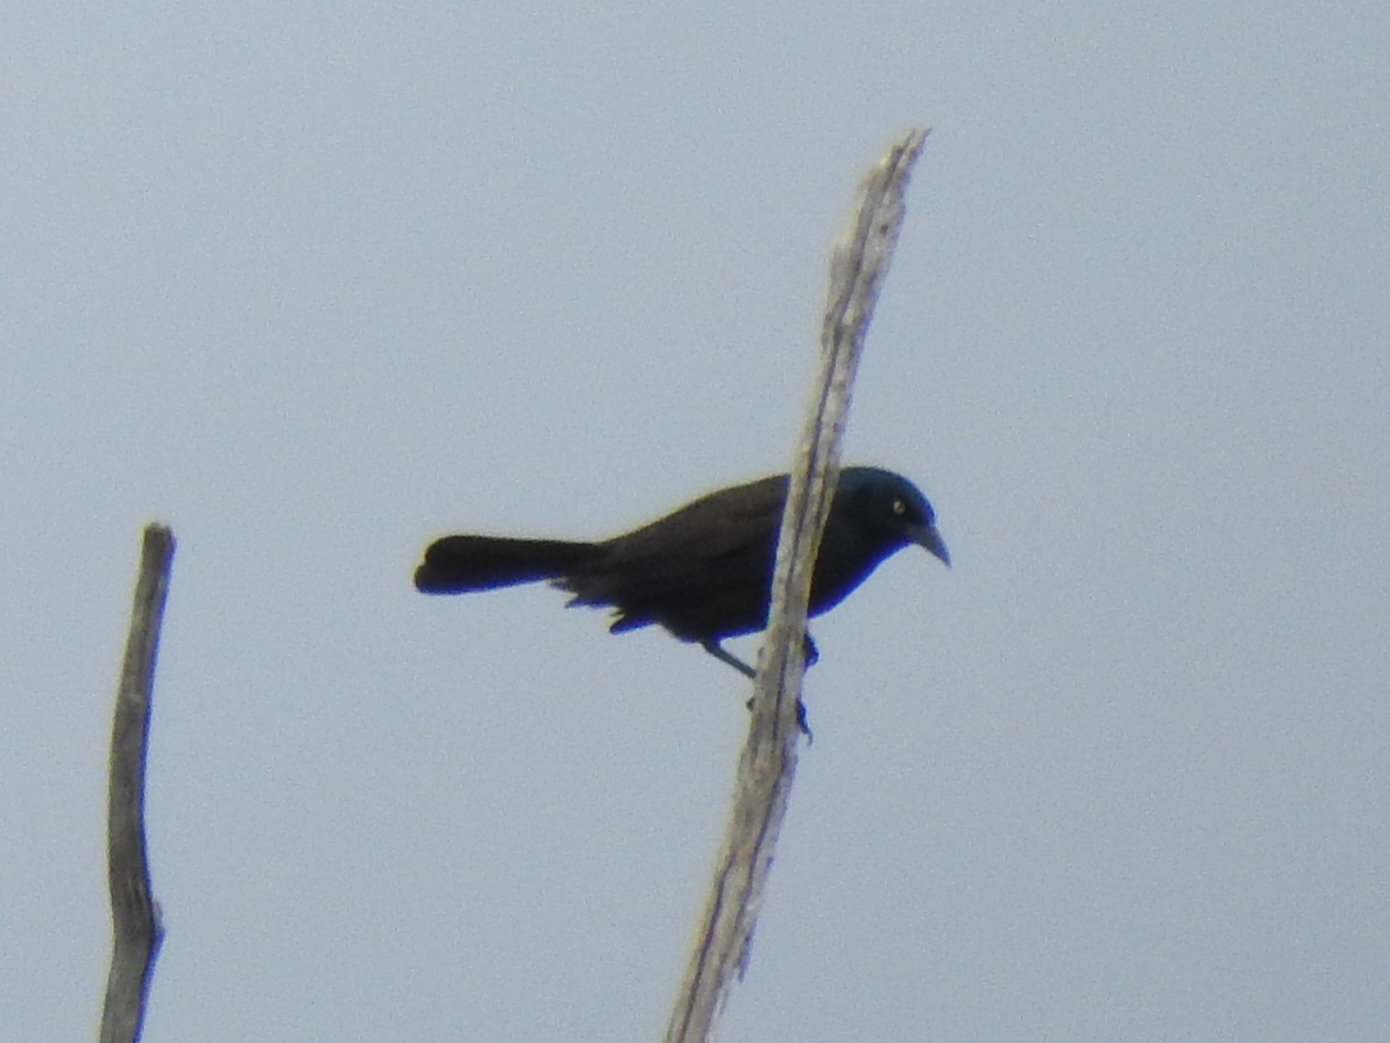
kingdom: Animalia
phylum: Chordata
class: Aves
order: Passeriformes
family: Icteridae
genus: Quiscalus
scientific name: Quiscalus quiscula
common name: Common grackle
